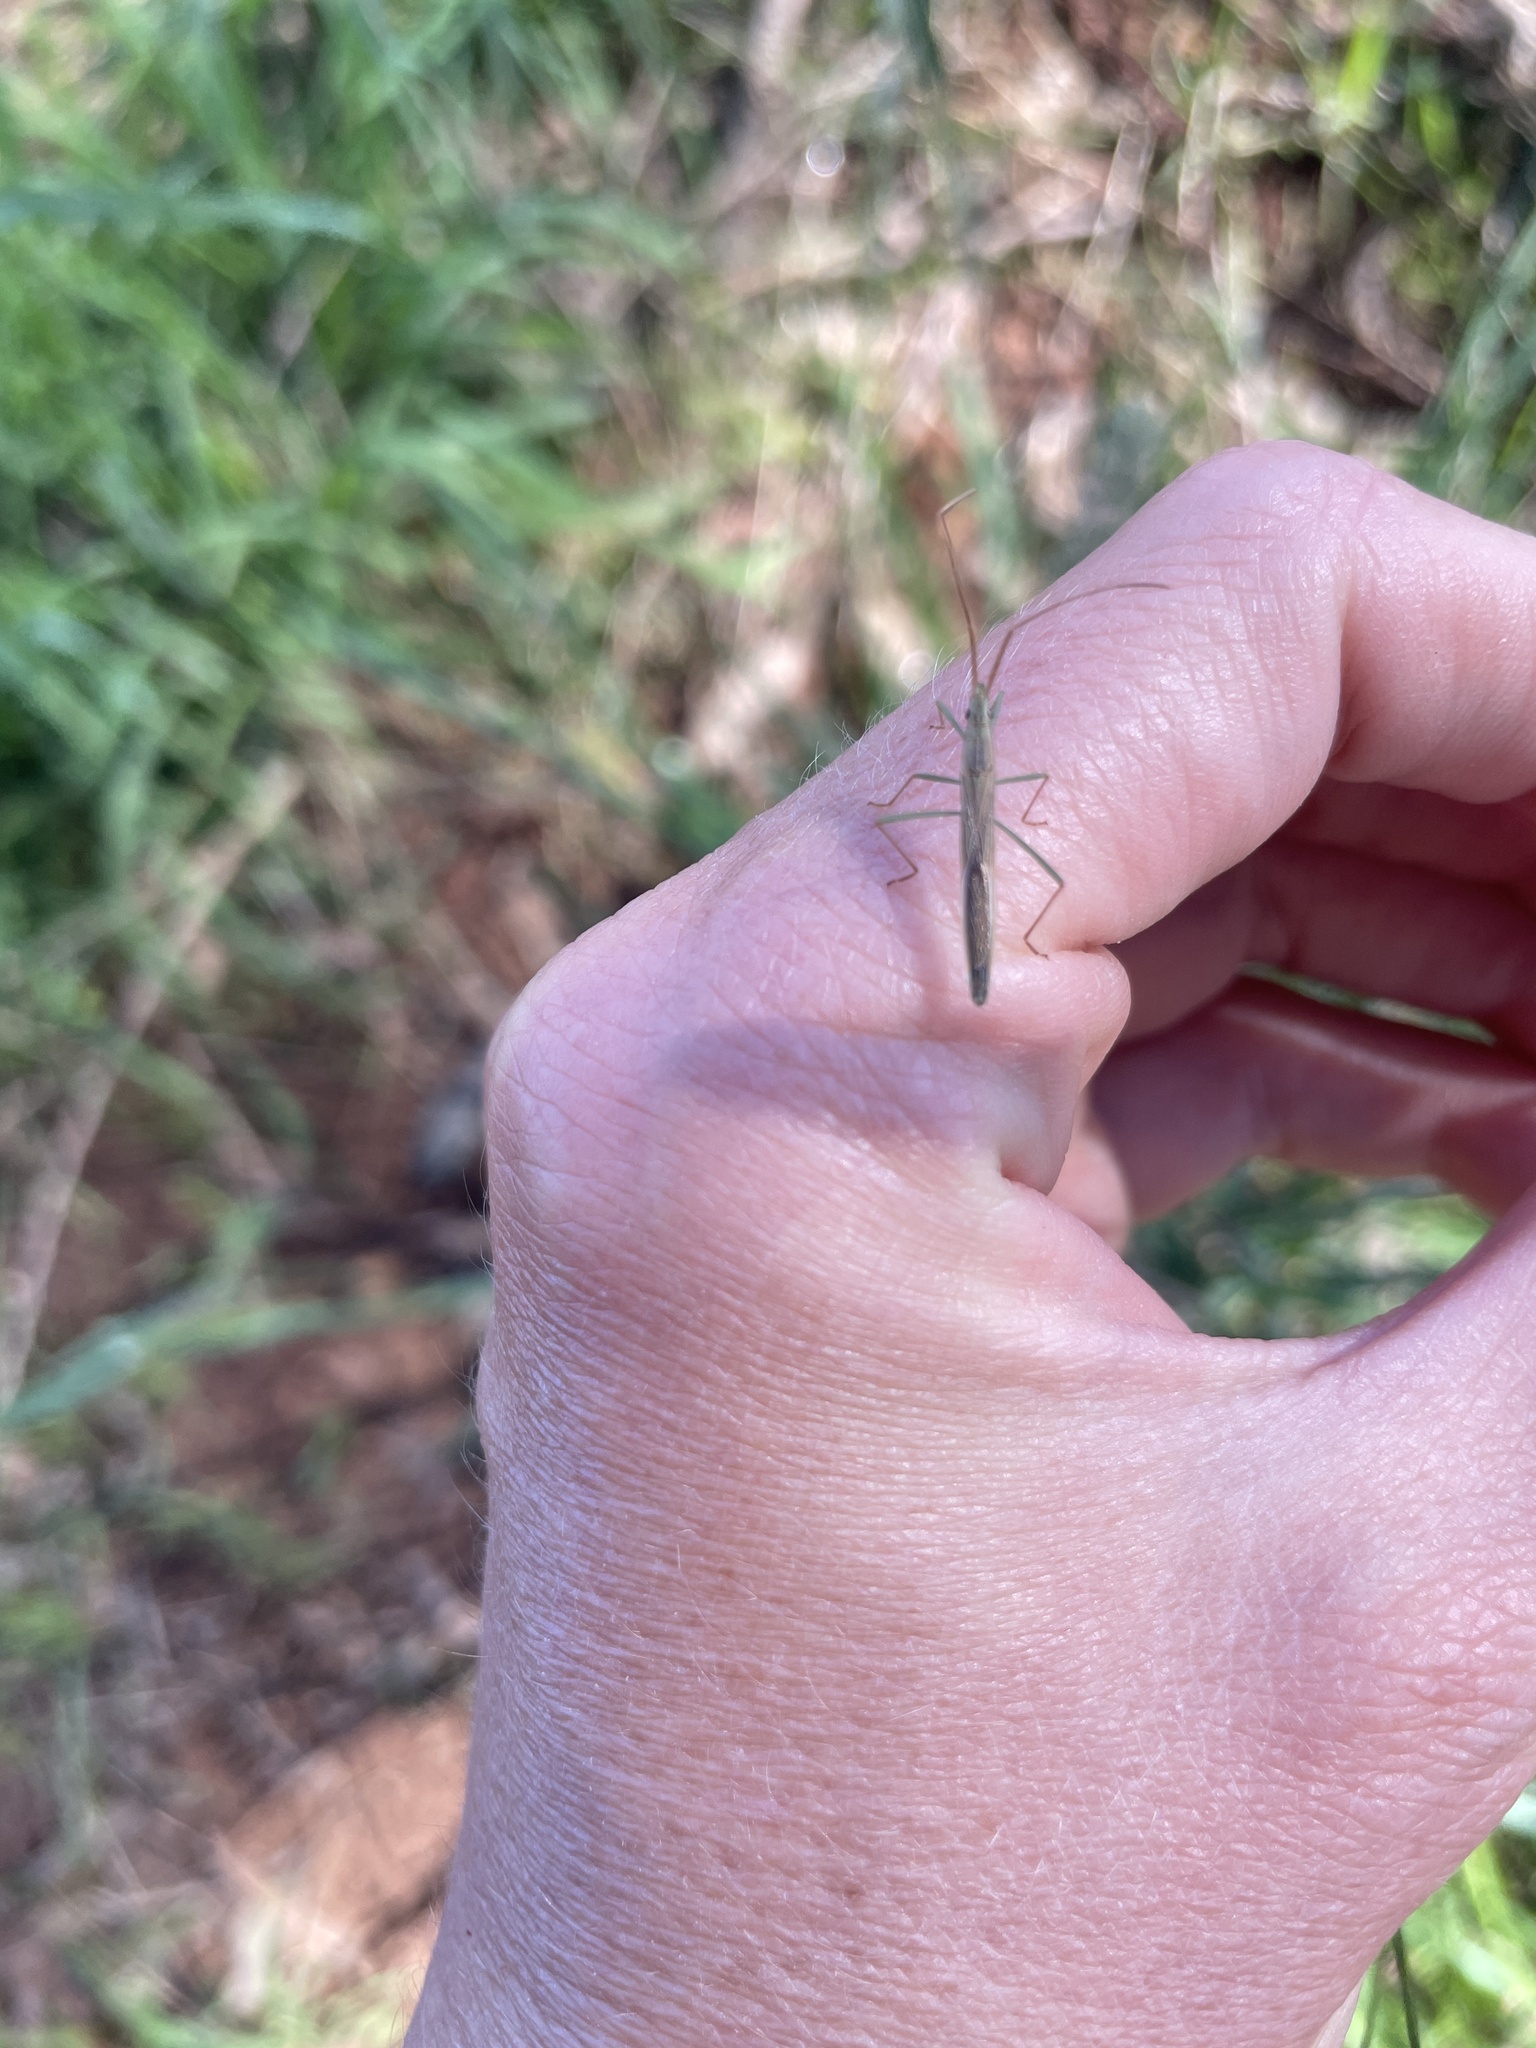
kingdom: Animalia
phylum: Arthropoda
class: Insecta
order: Hemiptera
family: Alydidae
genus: Mutusca
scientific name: Mutusca brevicornis
